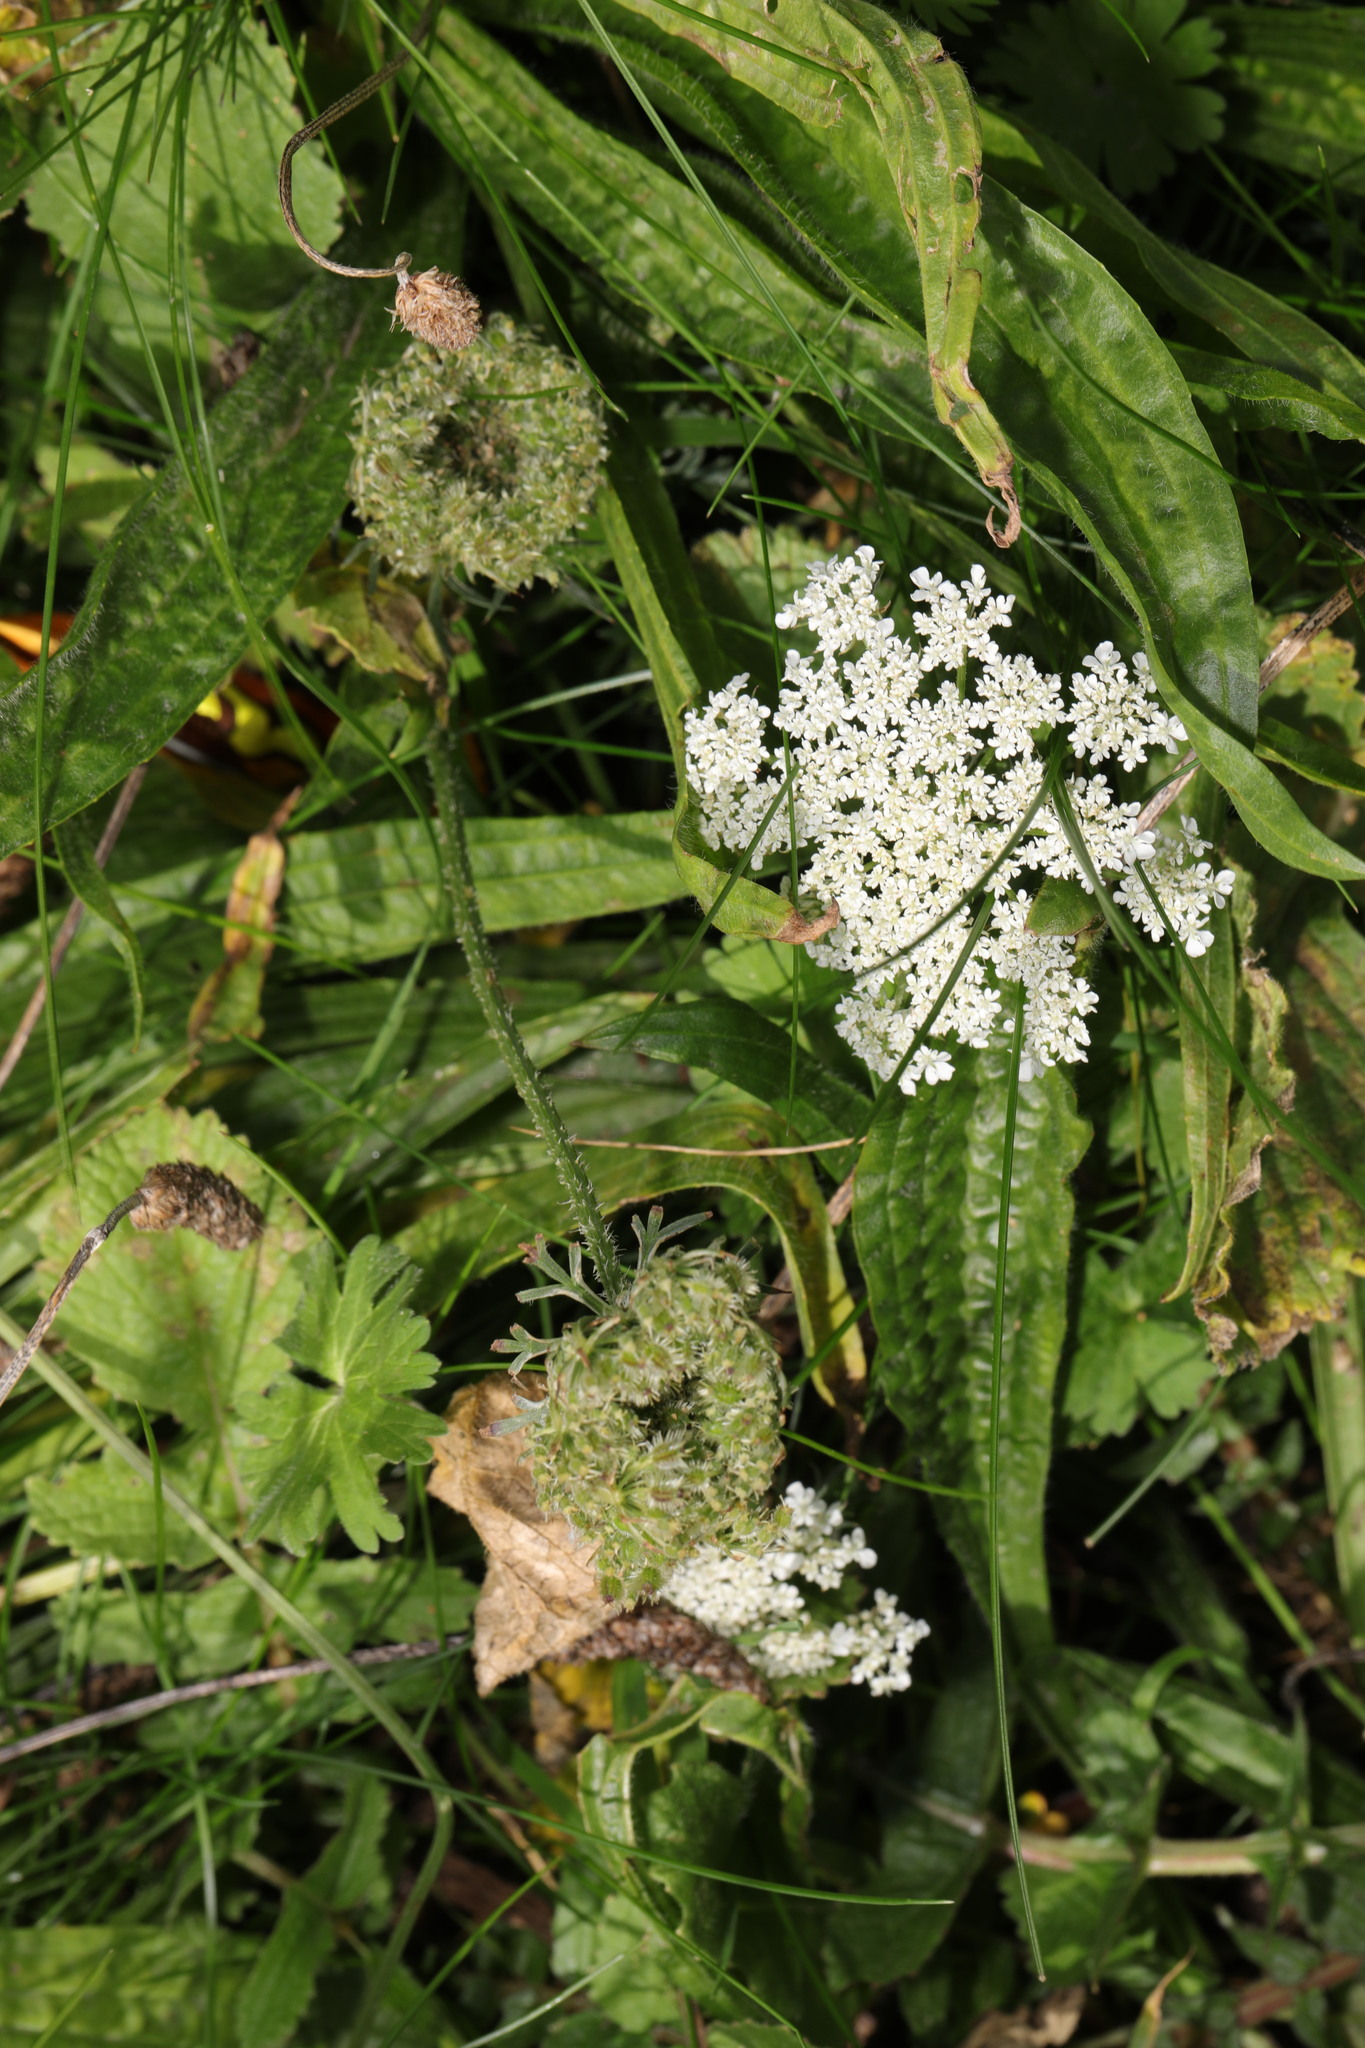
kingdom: Plantae
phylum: Tracheophyta
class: Magnoliopsida
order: Apiales
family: Apiaceae
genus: Daucus
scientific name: Daucus carota
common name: Wild carrot
